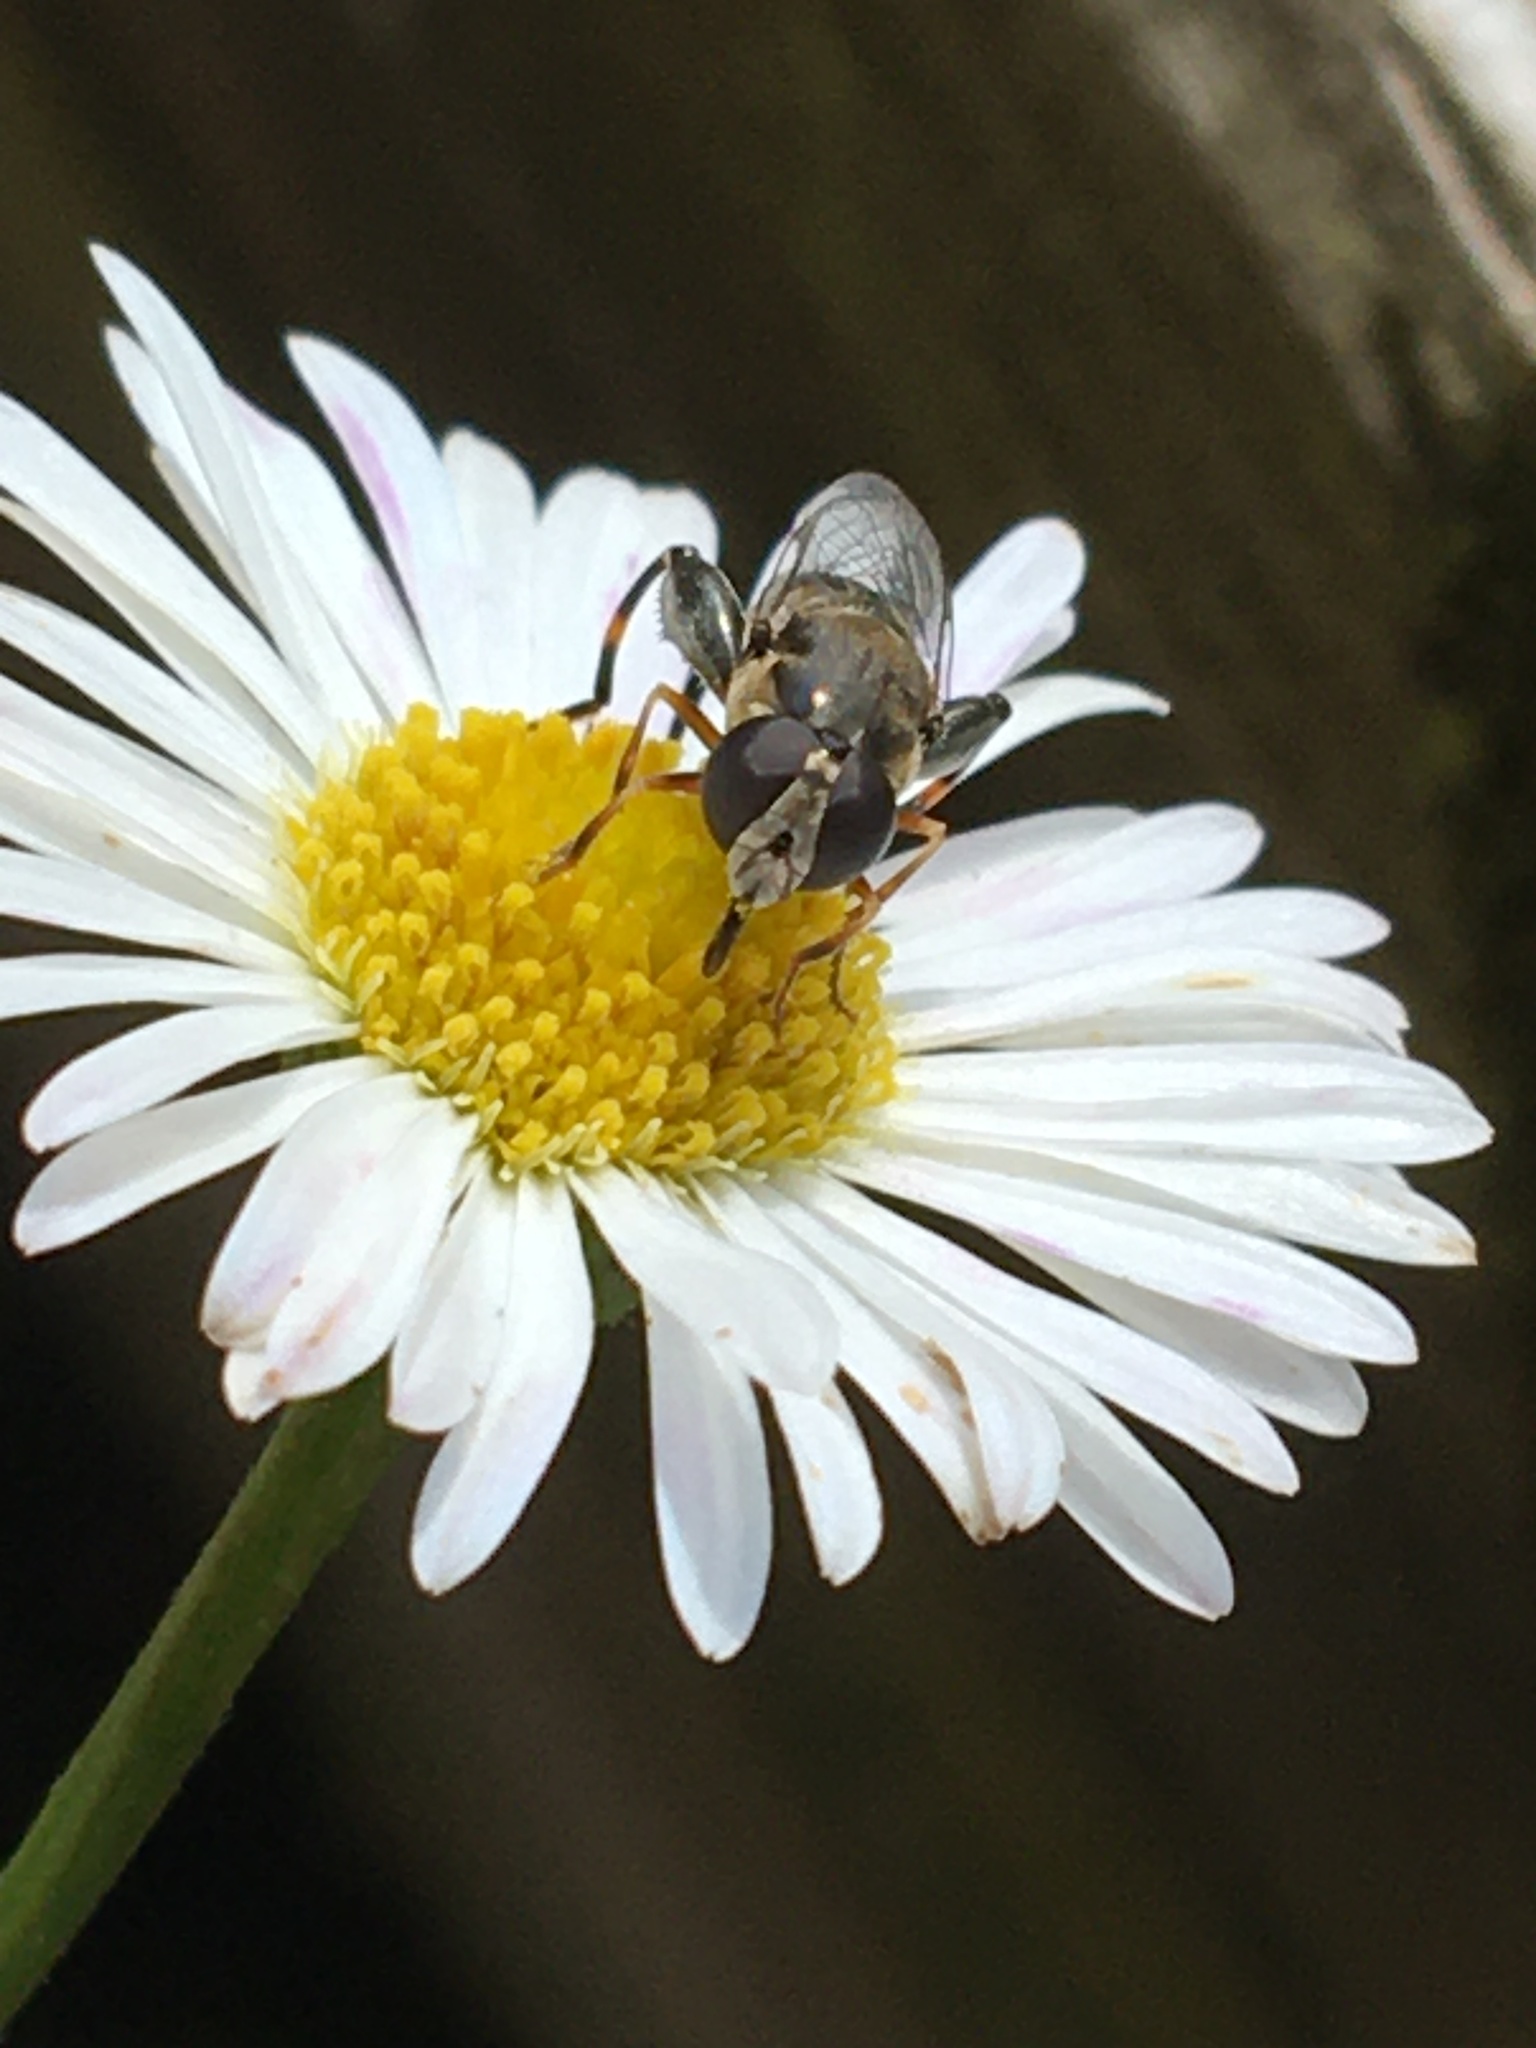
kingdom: Animalia
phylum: Arthropoda
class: Insecta
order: Diptera
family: Syrphidae
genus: Syritta
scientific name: Syritta pipiens
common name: Hover fly
